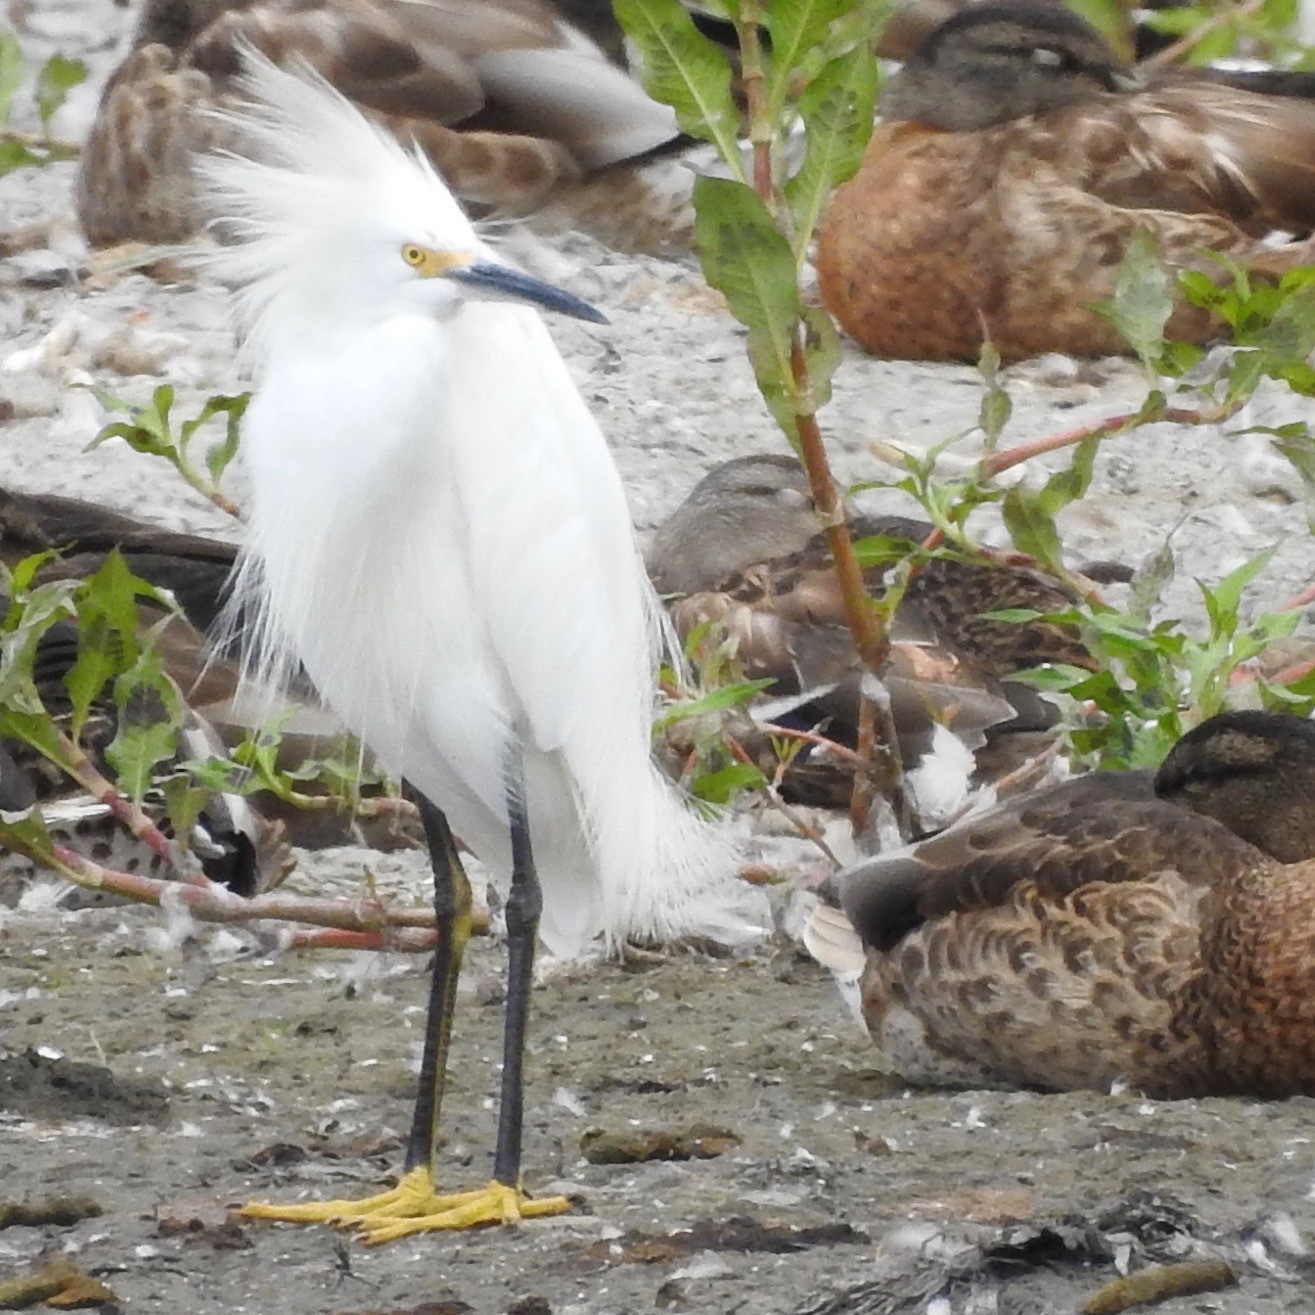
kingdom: Animalia
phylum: Chordata
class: Aves
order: Pelecaniformes
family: Ardeidae
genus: Egretta
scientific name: Egretta thula
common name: Snowy egret
